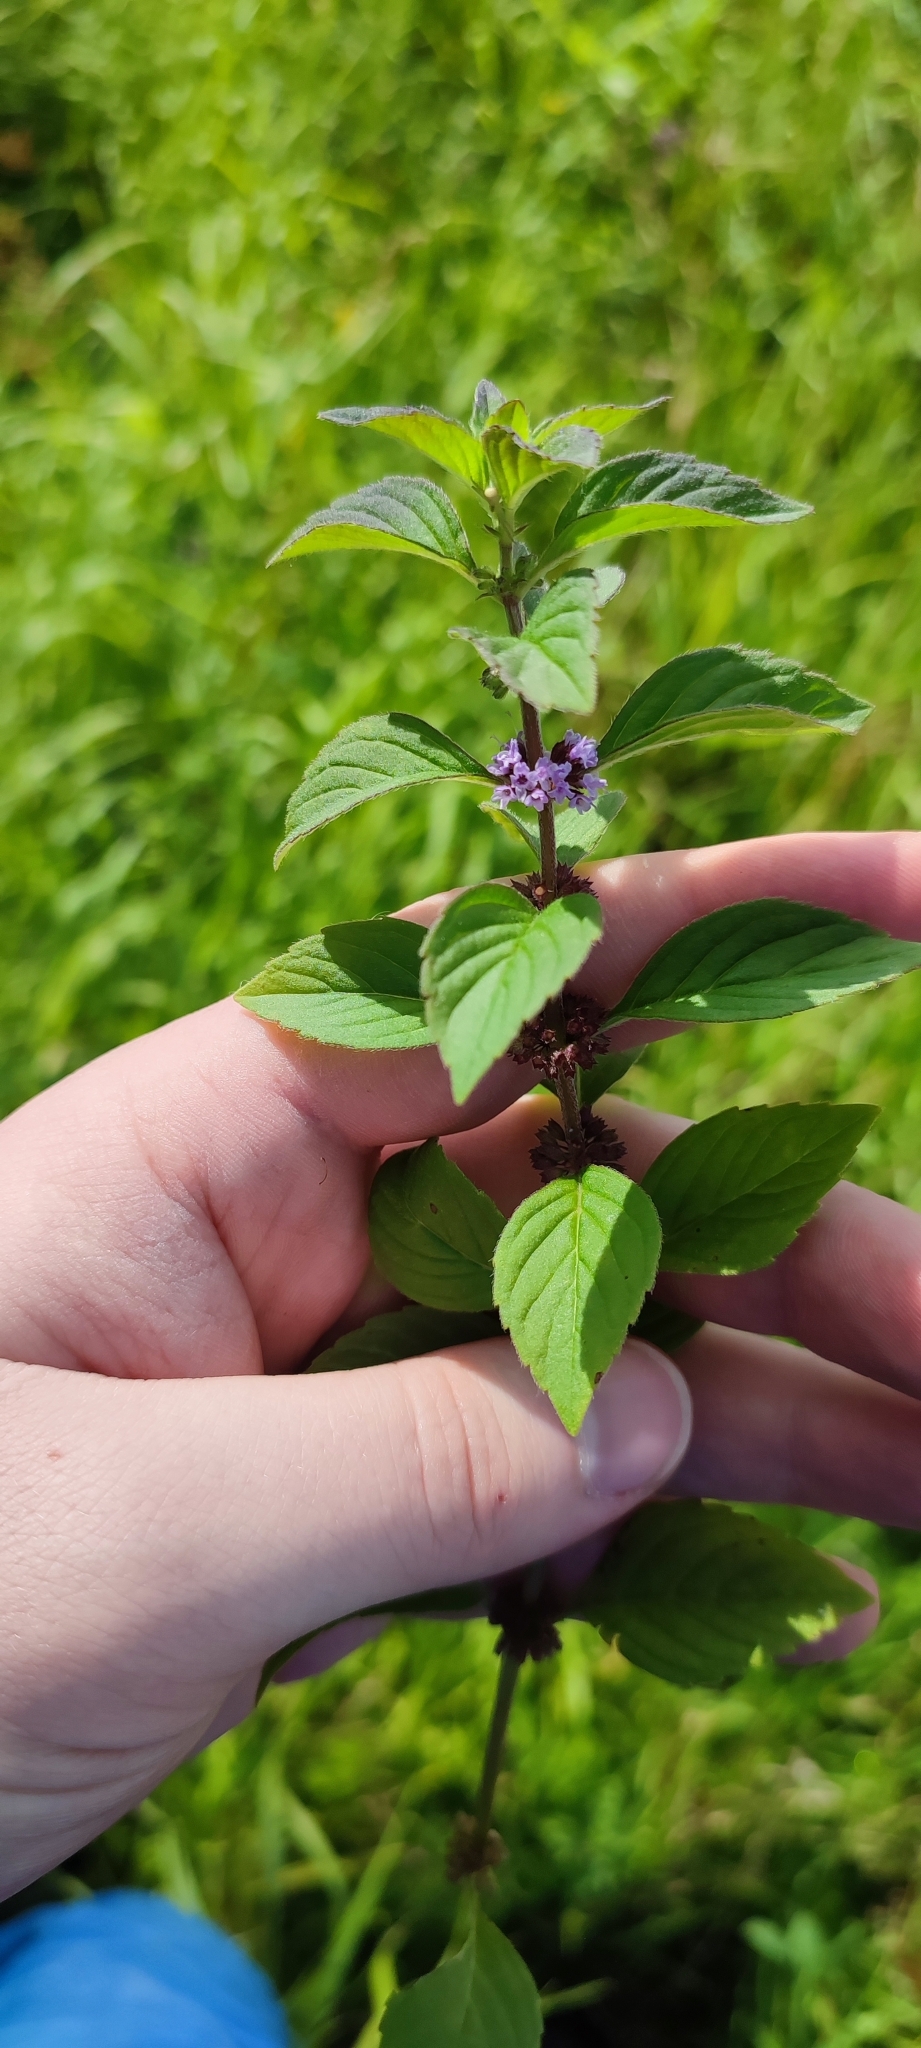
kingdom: Plantae
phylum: Tracheophyta
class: Magnoliopsida
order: Lamiales
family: Lamiaceae
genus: Mentha
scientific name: Mentha arvensis
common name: Corn mint
